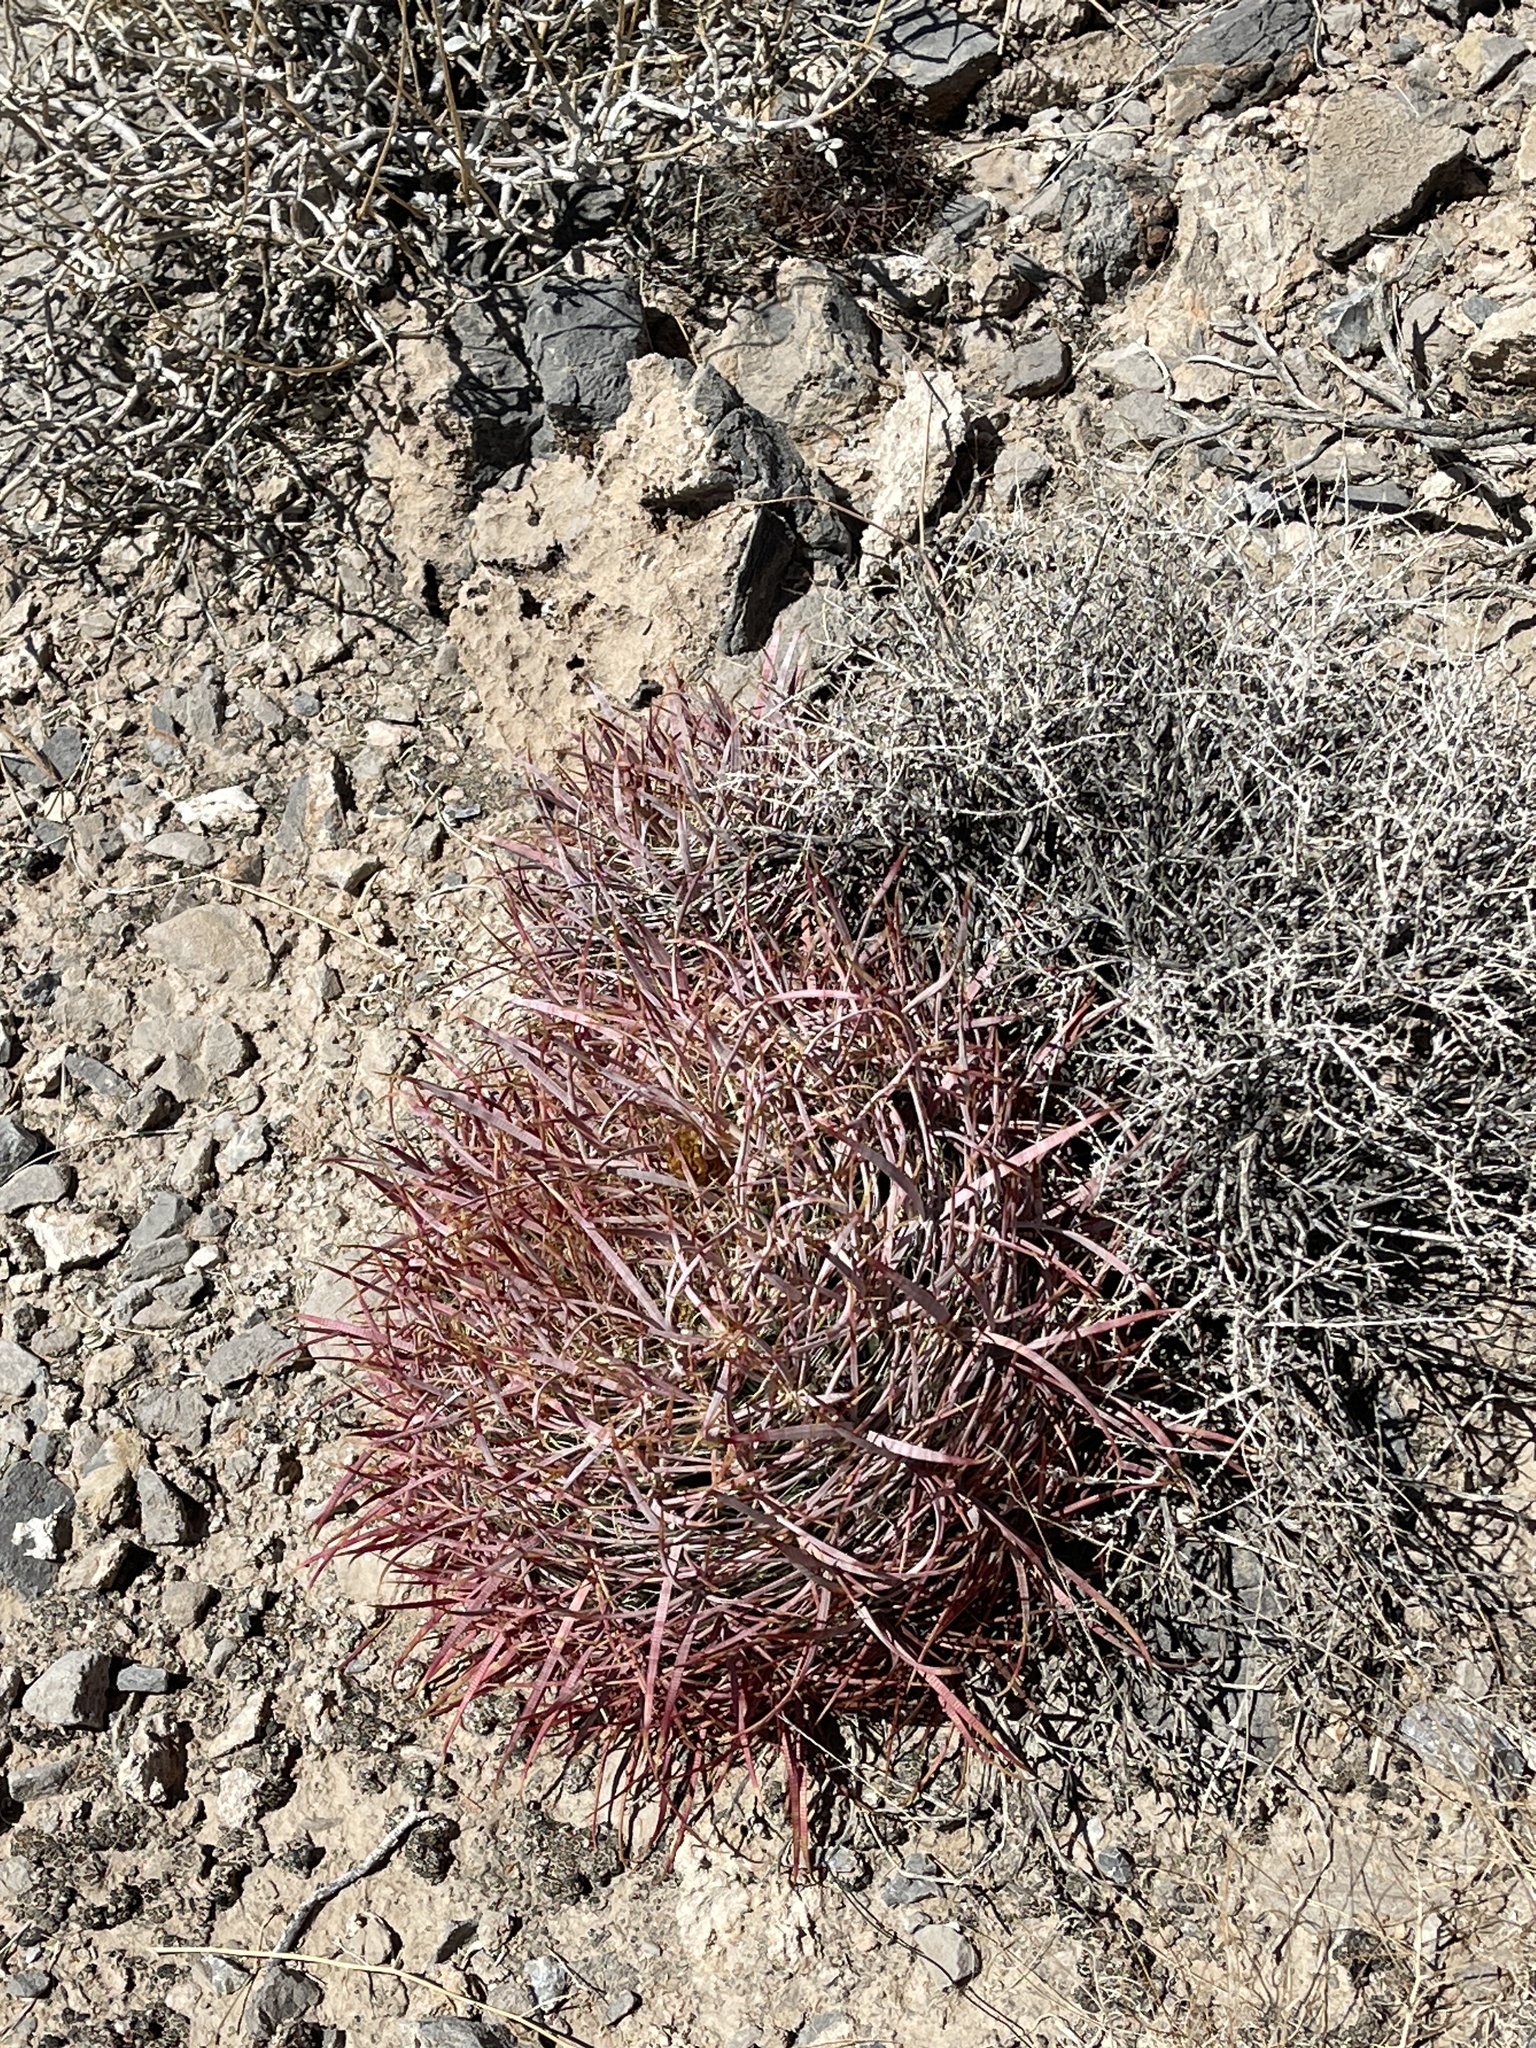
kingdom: Plantae
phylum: Tracheophyta
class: Magnoliopsida
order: Caryophyllales
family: Cactaceae
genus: Ferocactus
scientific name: Ferocactus cylindraceus
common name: California barrel cactus
